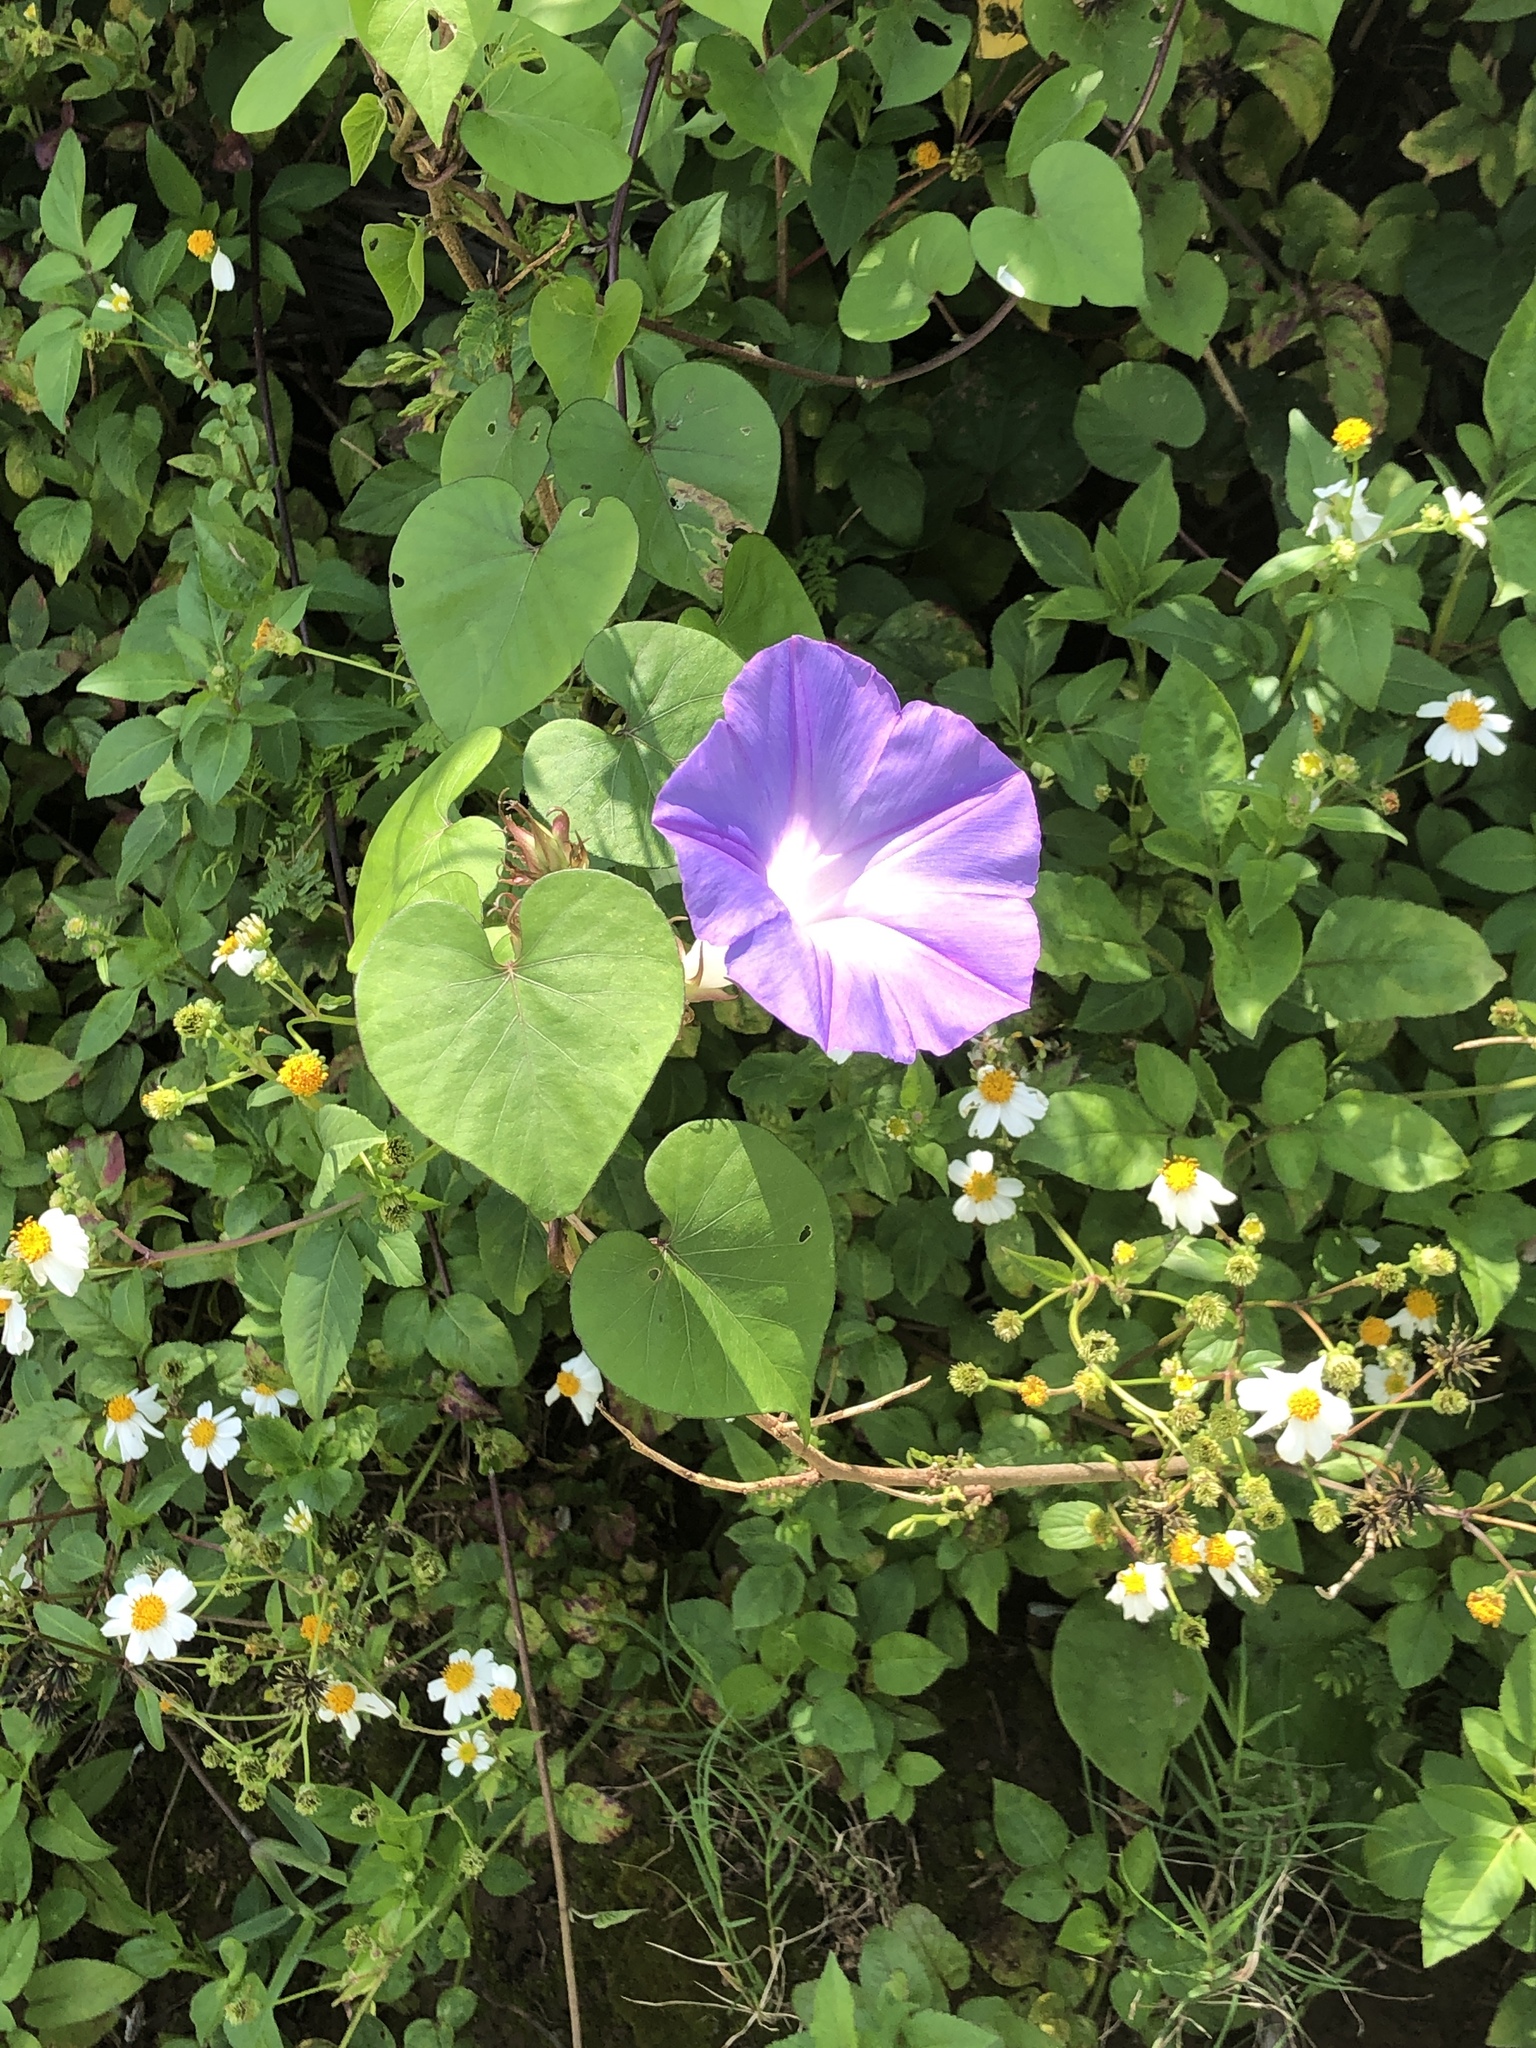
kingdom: Plantae
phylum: Tracheophyta
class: Magnoliopsida
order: Solanales
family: Convolvulaceae
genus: Ipomoea
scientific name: Ipomoea indica
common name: Blue dawnflower
